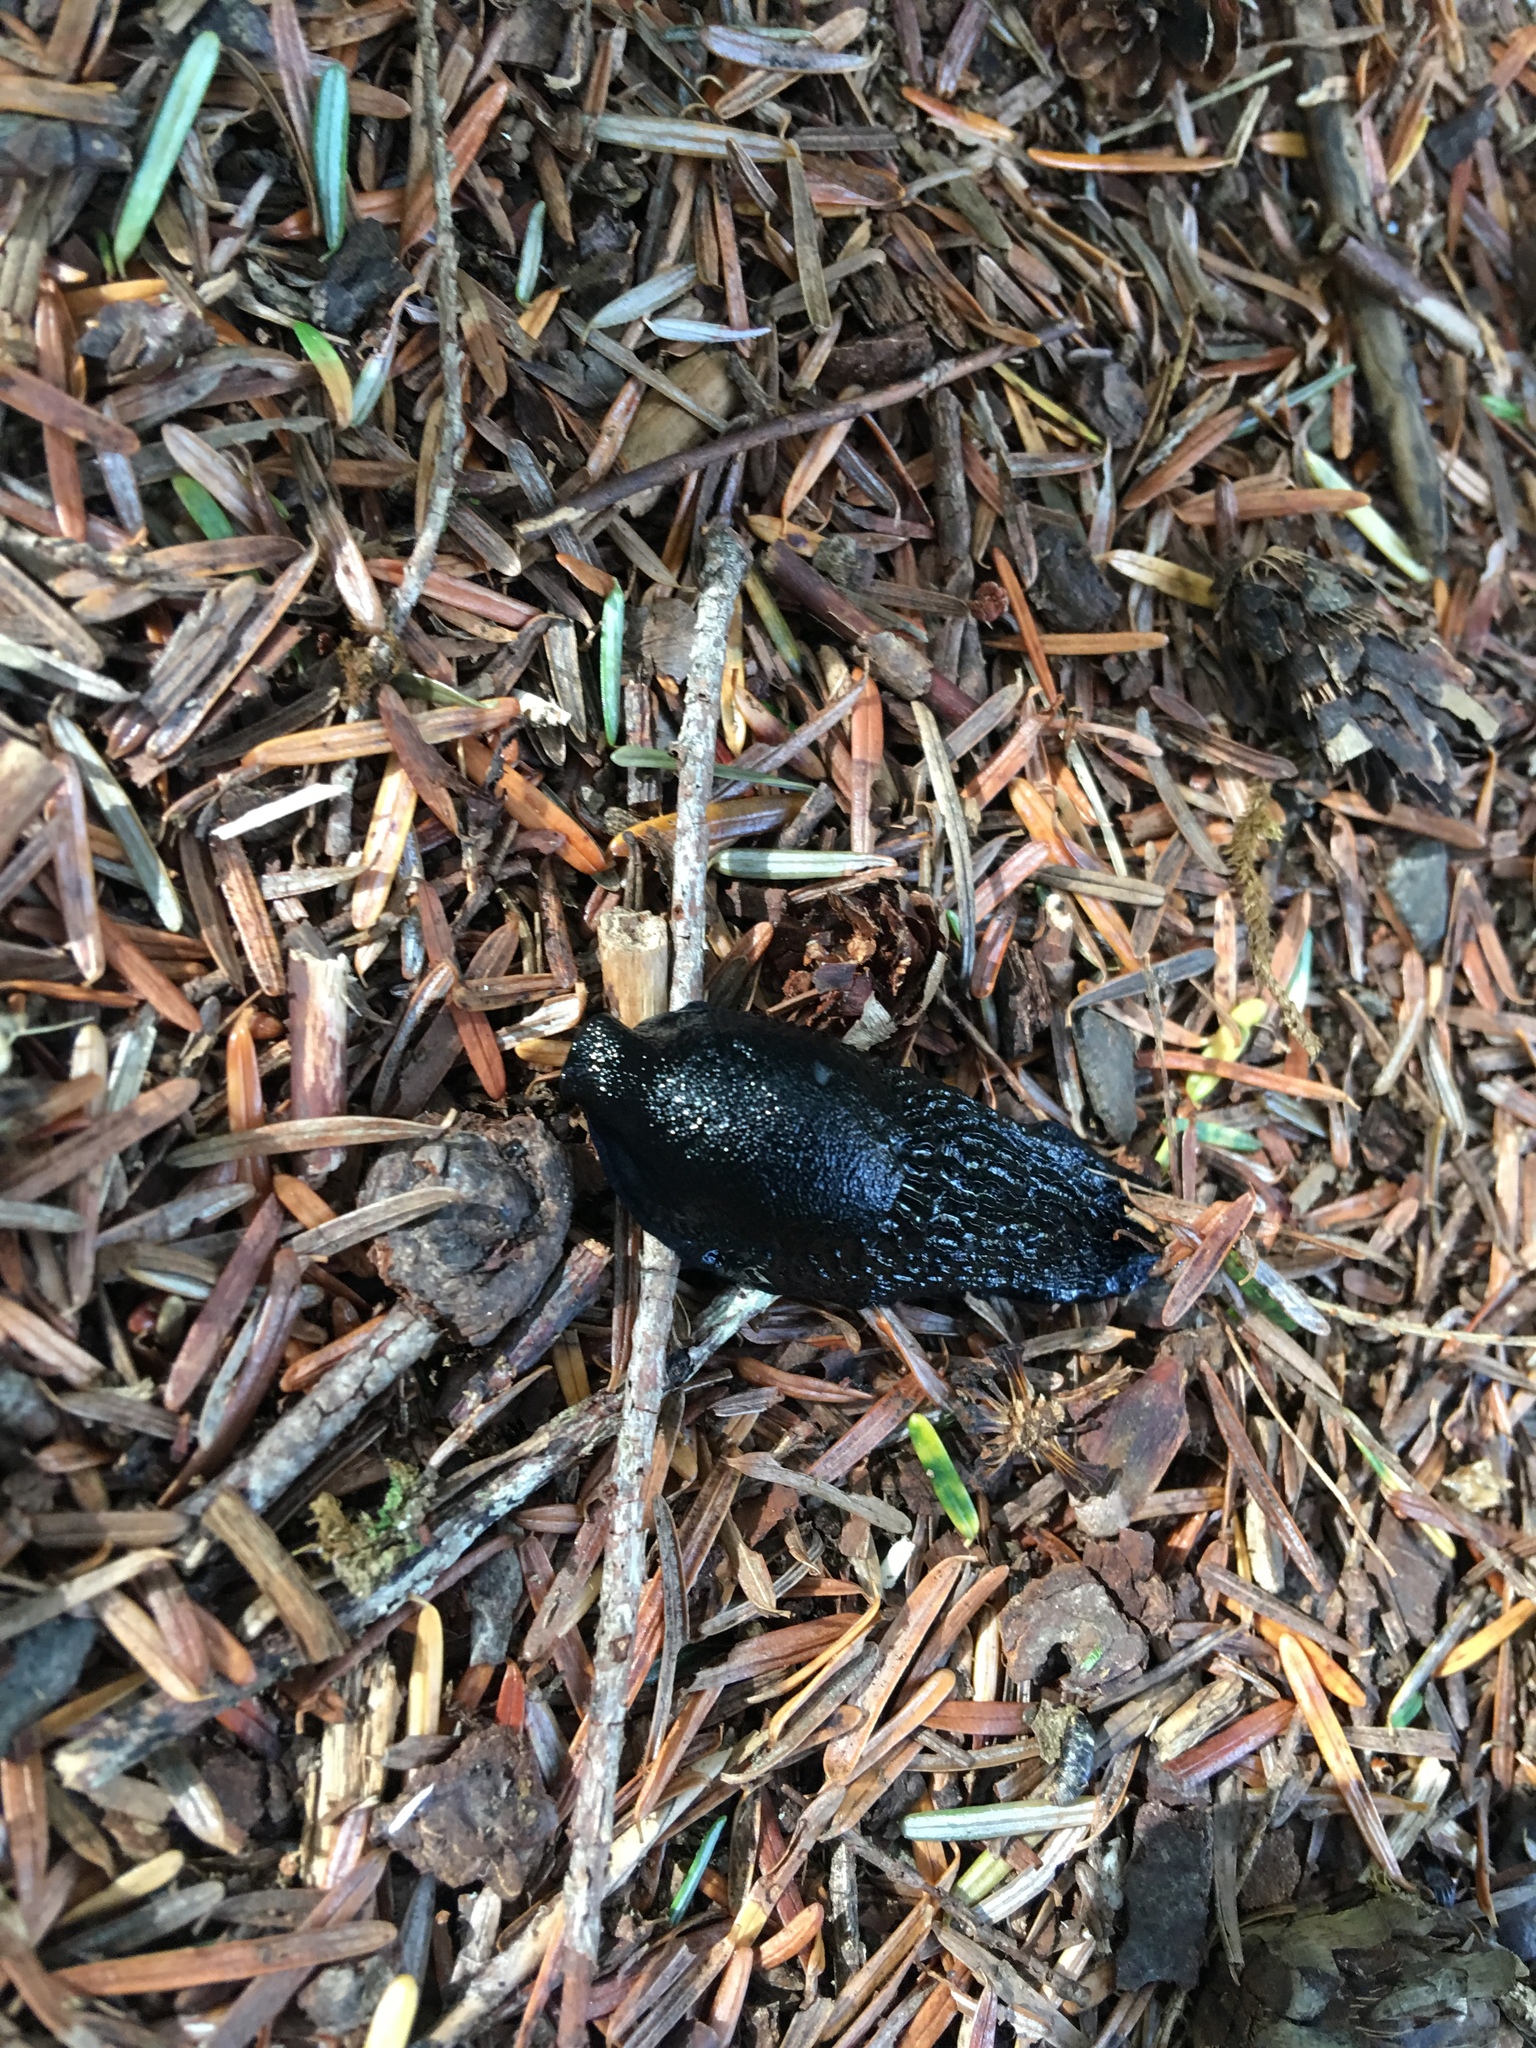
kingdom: Animalia
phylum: Mollusca
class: Gastropoda
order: Stylommatophora
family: Arionidae
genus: Arion
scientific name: Arion
